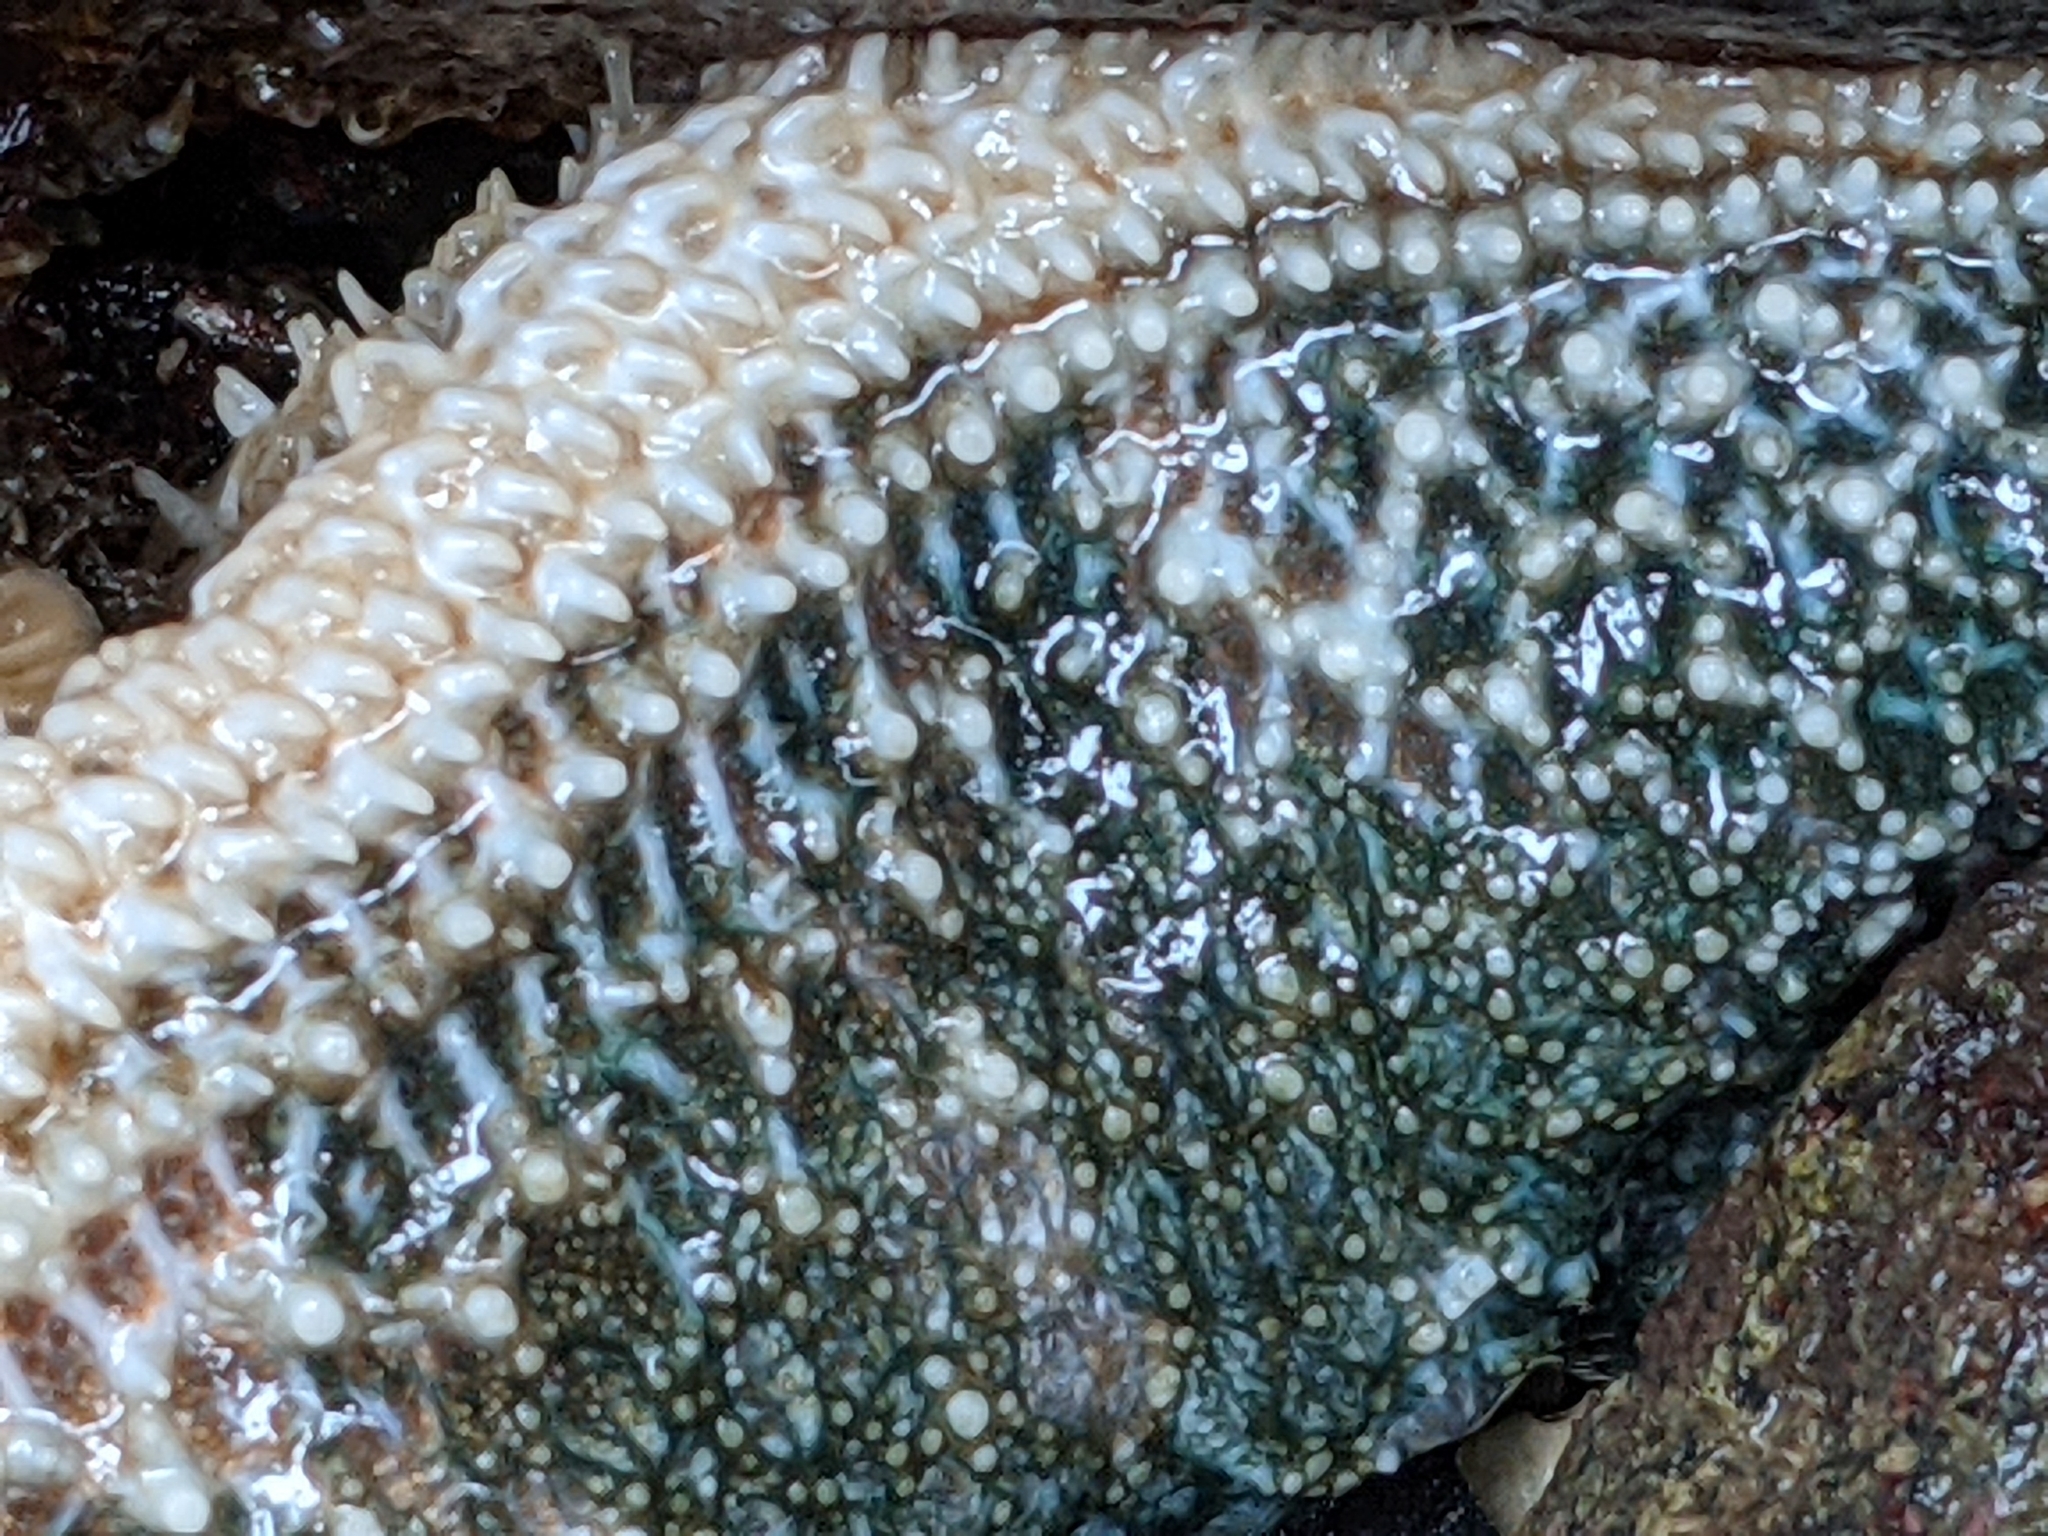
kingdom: Animalia
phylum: Echinodermata
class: Asteroidea
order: Forcipulatida
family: Asteriidae
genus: Evasterias
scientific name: Evasterias troschelii
